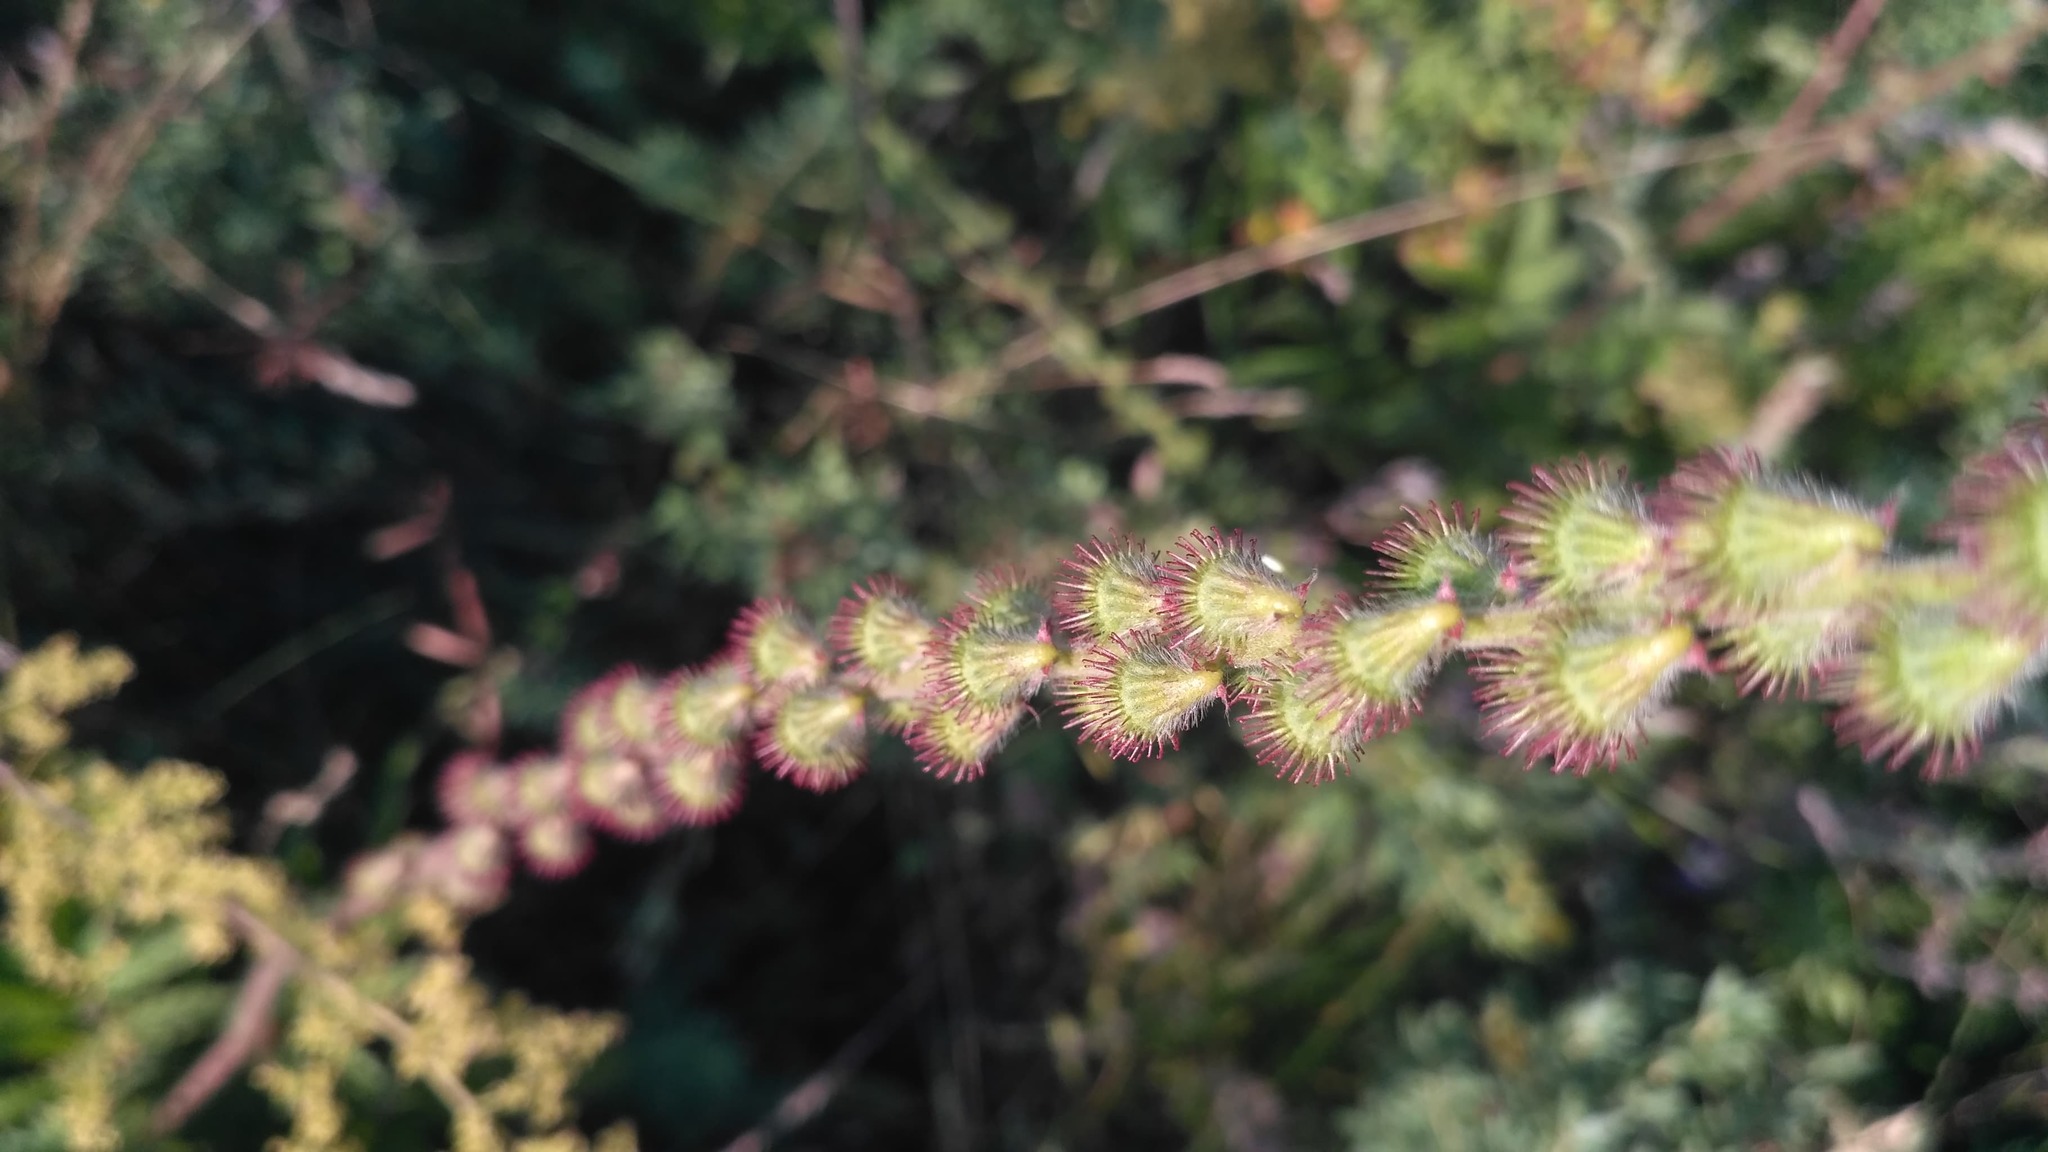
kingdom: Plantae
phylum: Tracheophyta
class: Magnoliopsida
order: Rosales
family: Rosaceae
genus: Agrimonia
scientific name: Agrimonia eupatoria
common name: Agrimony
